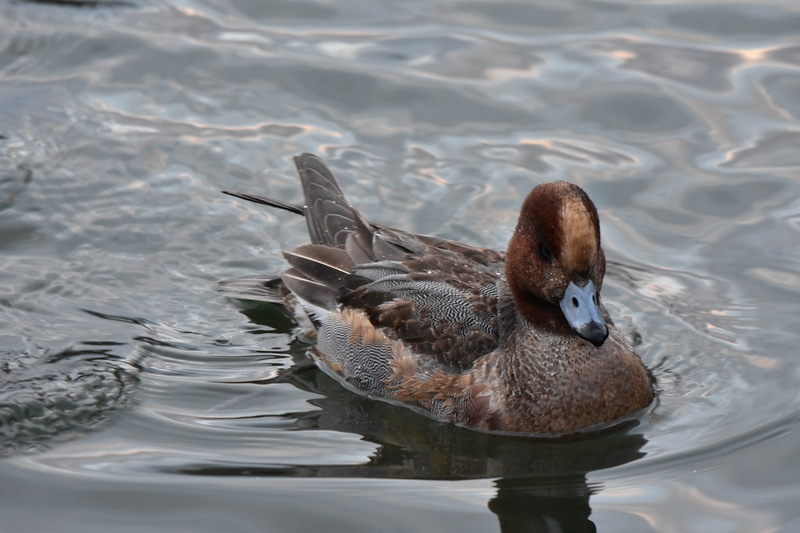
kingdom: Animalia
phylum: Chordata
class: Aves
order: Anseriformes
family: Anatidae
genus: Mareca
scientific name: Mareca penelope
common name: Eurasian wigeon
